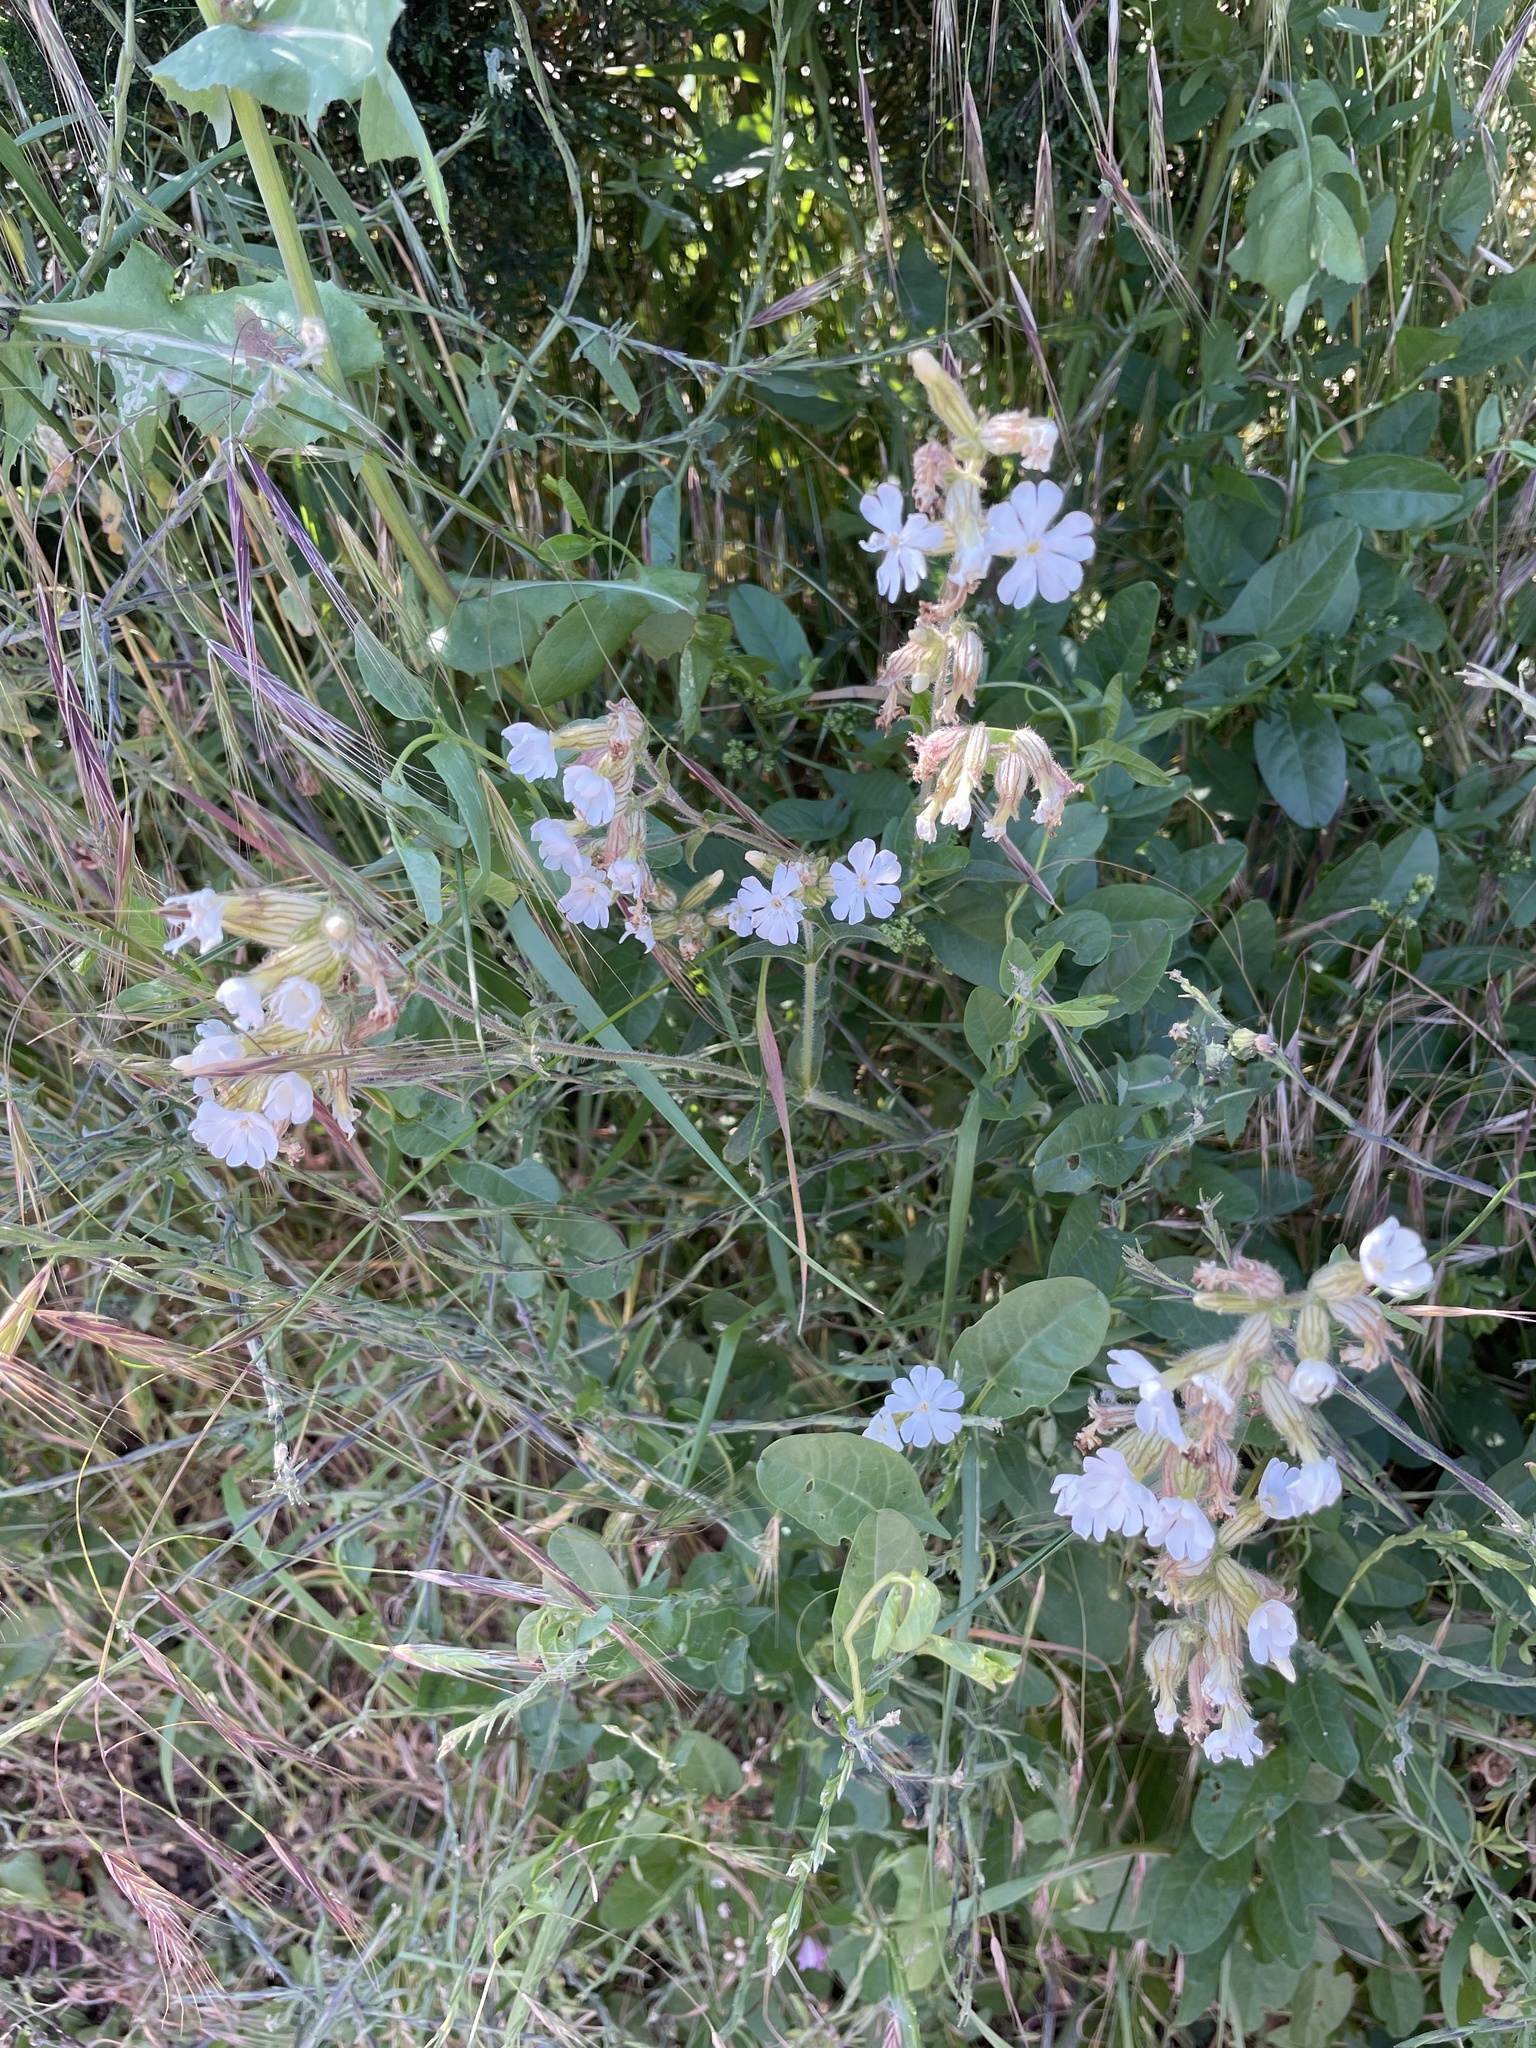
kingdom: Plantae
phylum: Tracheophyta
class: Magnoliopsida
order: Caryophyllales
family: Caryophyllaceae
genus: Silene
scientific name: Silene latifolia
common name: White campion
